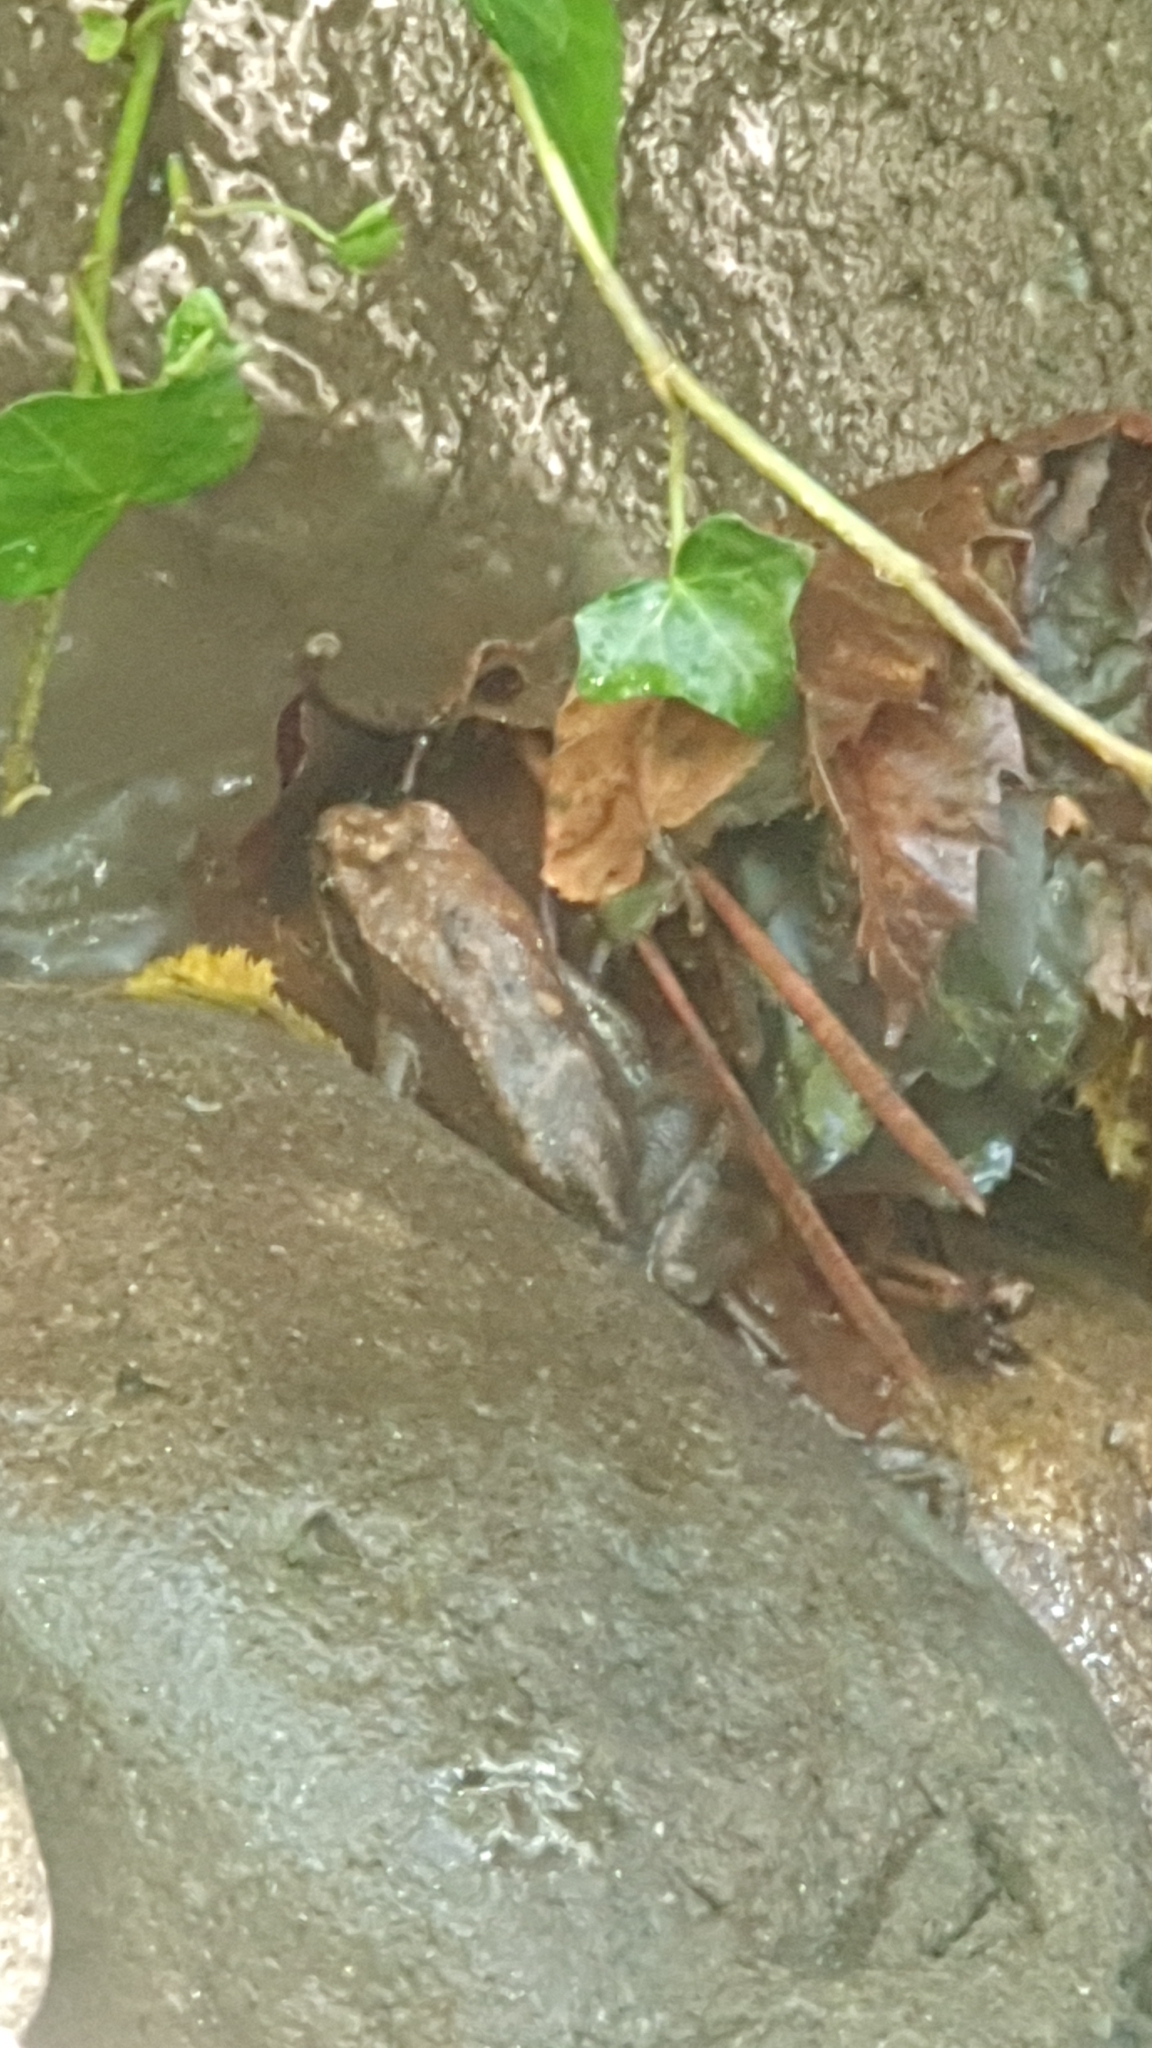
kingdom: Animalia
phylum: Chordata
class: Amphibia
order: Anura
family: Ranidae
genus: Rana
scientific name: Rana italica
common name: Italian stream frog
